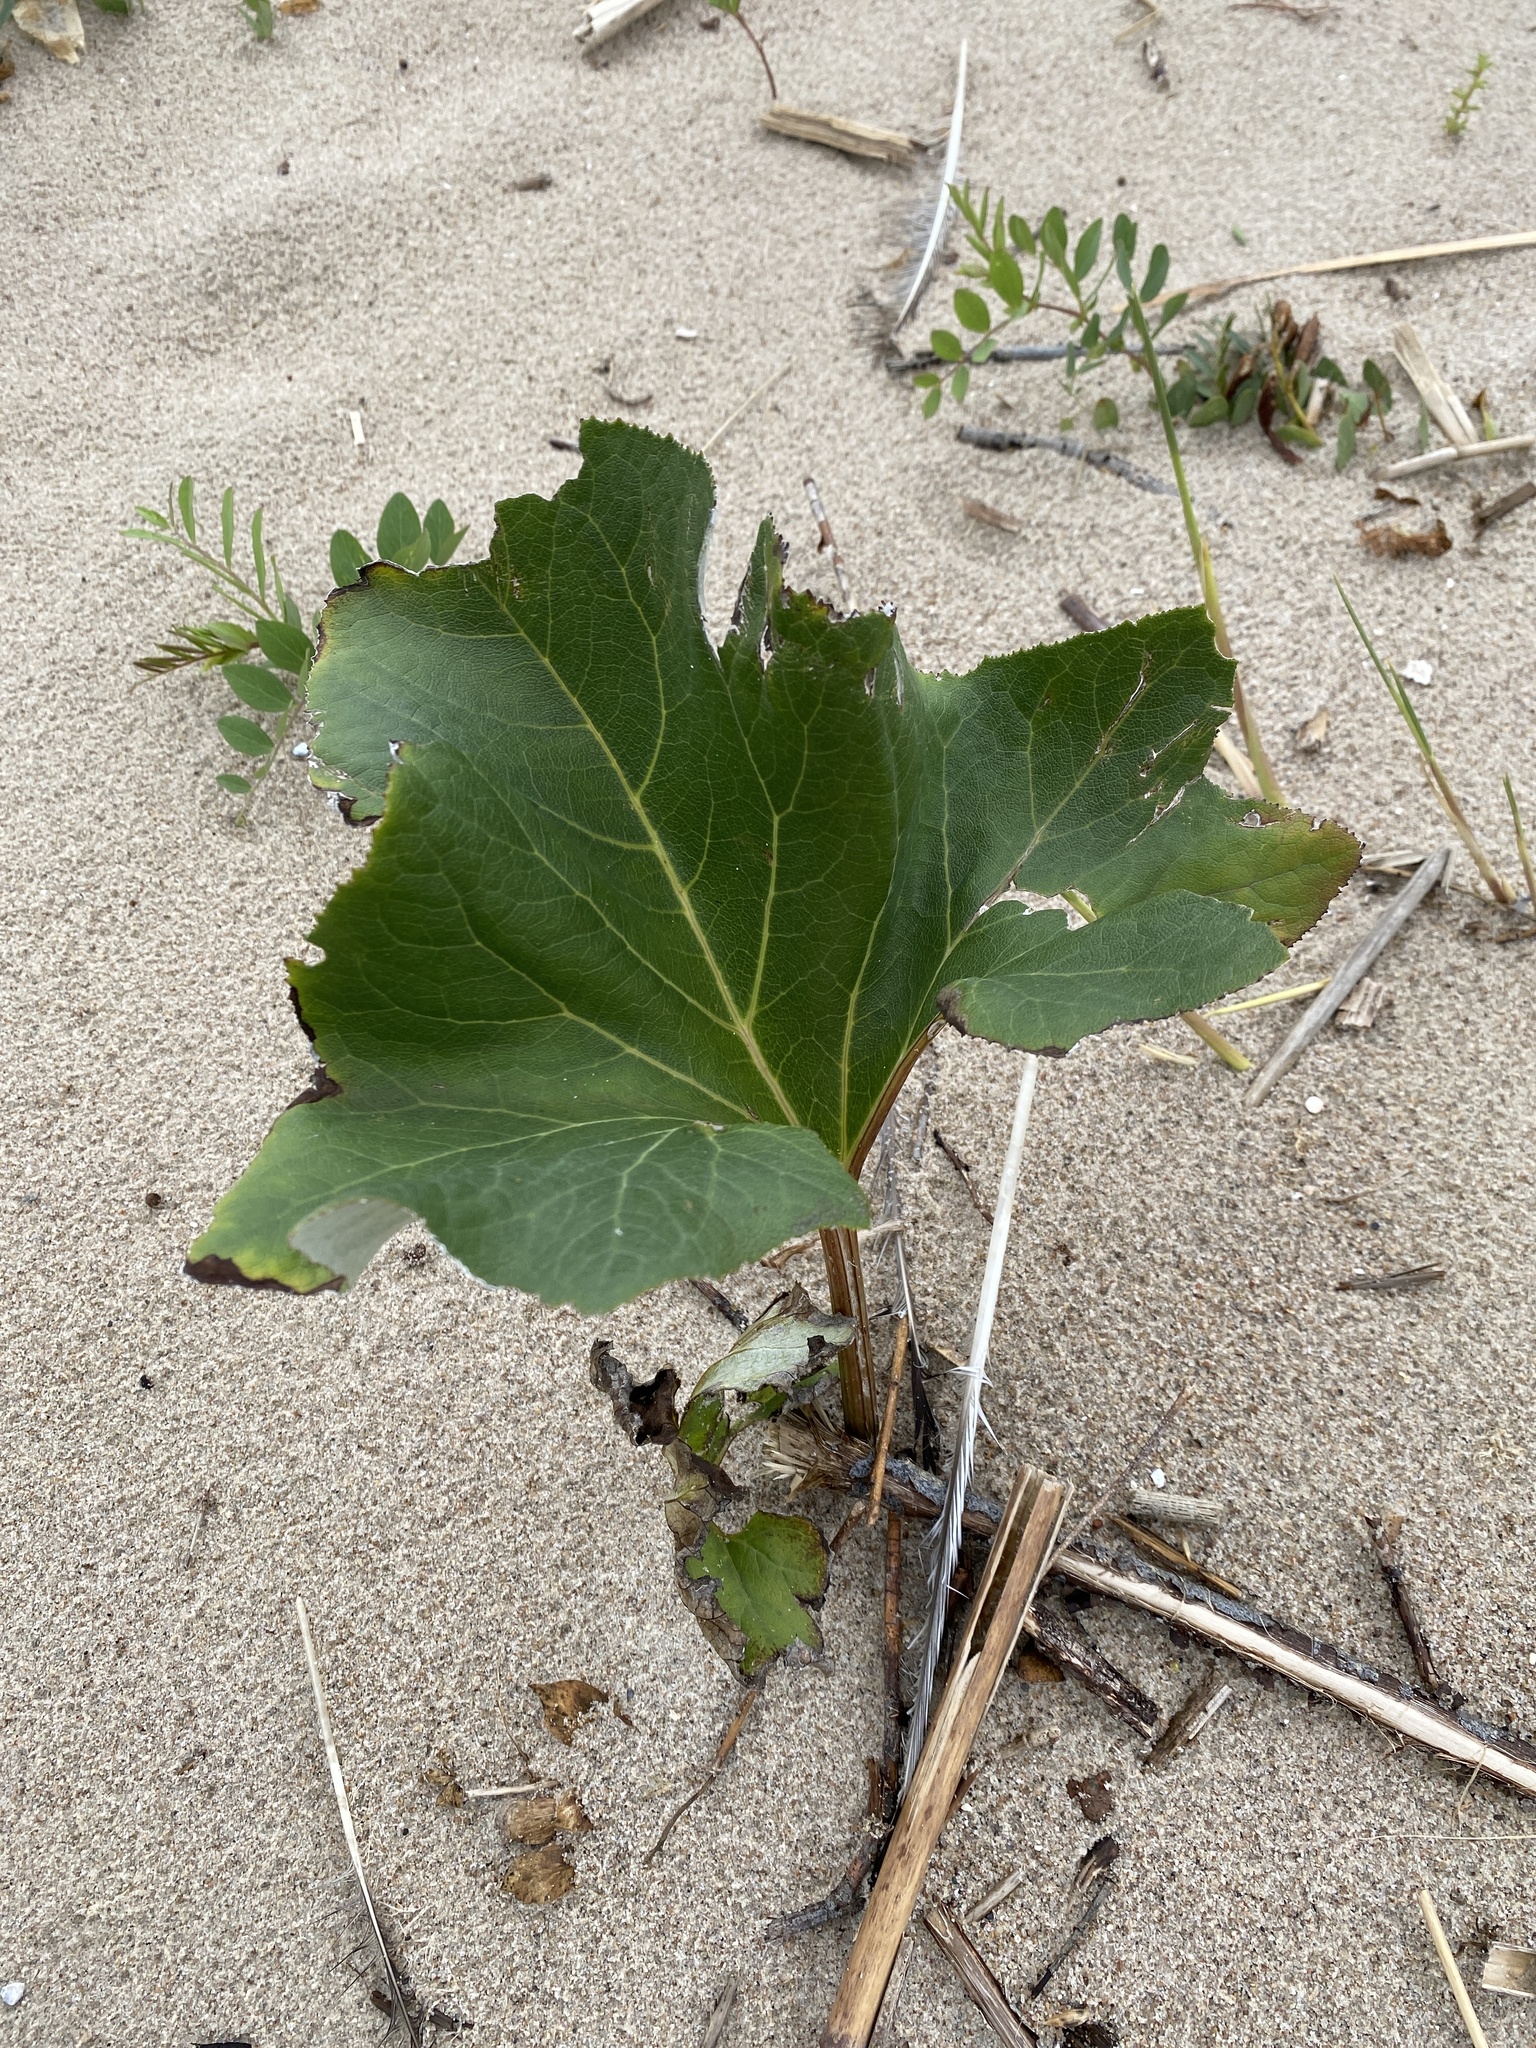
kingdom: Plantae
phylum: Tracheophyta
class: Magnoliopsida
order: Asterales
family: Asteraceae
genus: Petasites
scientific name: Petasites spurius
